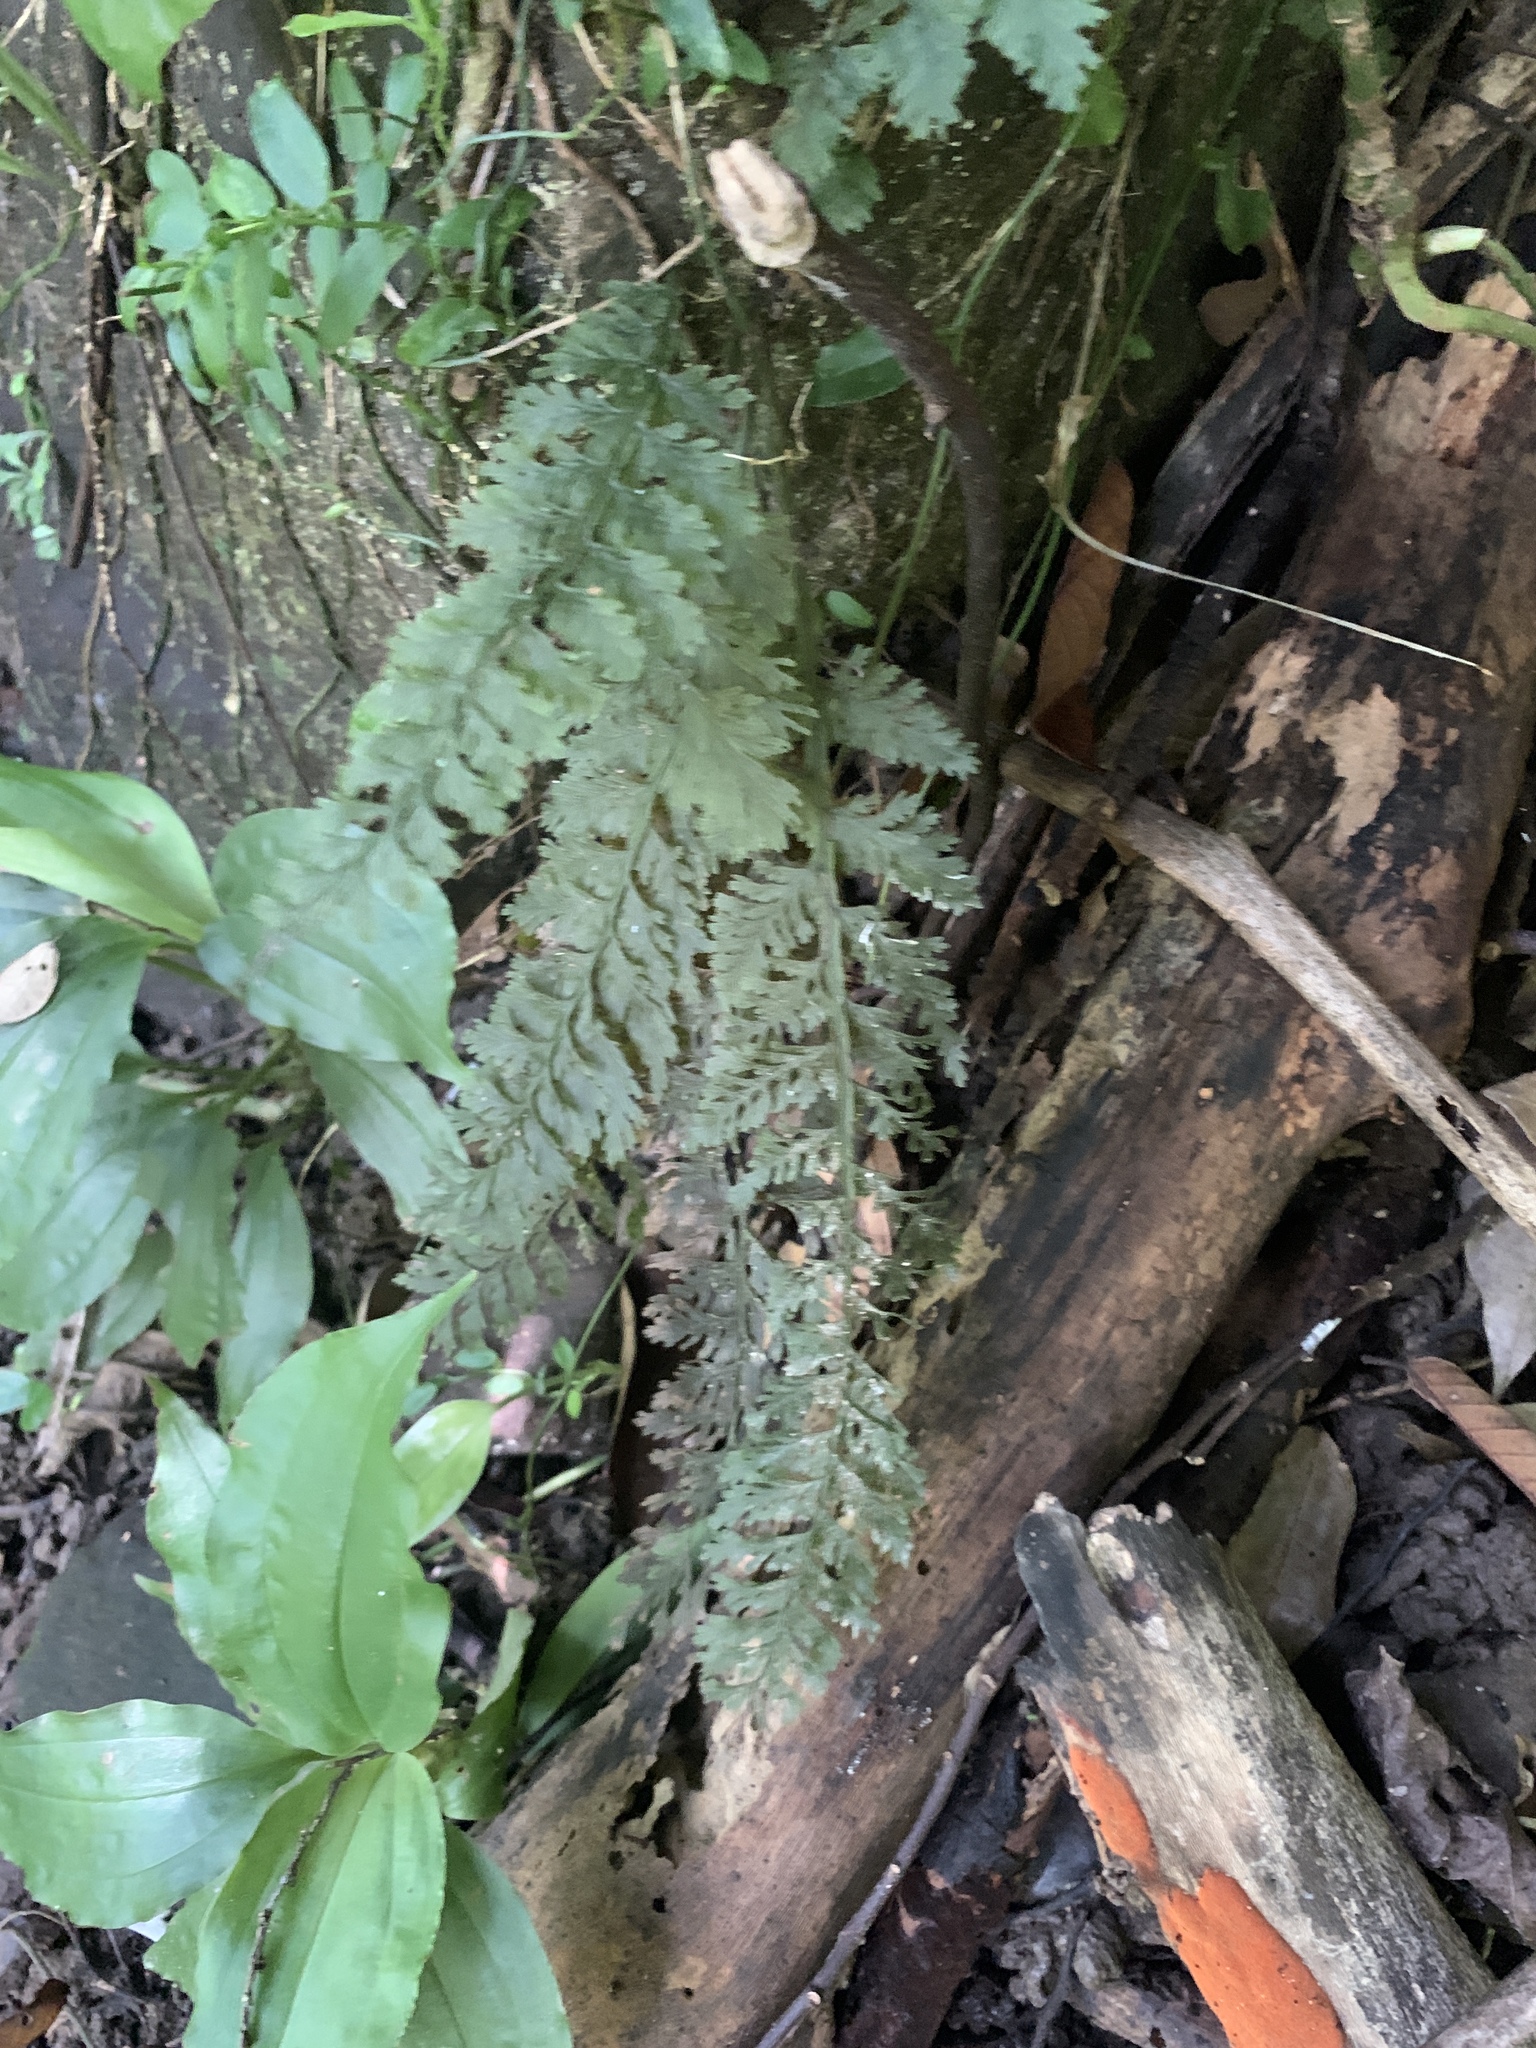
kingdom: Plantae
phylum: Tracheophyta
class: Polypodiopsida
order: Hymenophyllales
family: Hymenophyllaceae
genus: Vandenboschia
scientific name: Vandenboschia kalamocarpa
